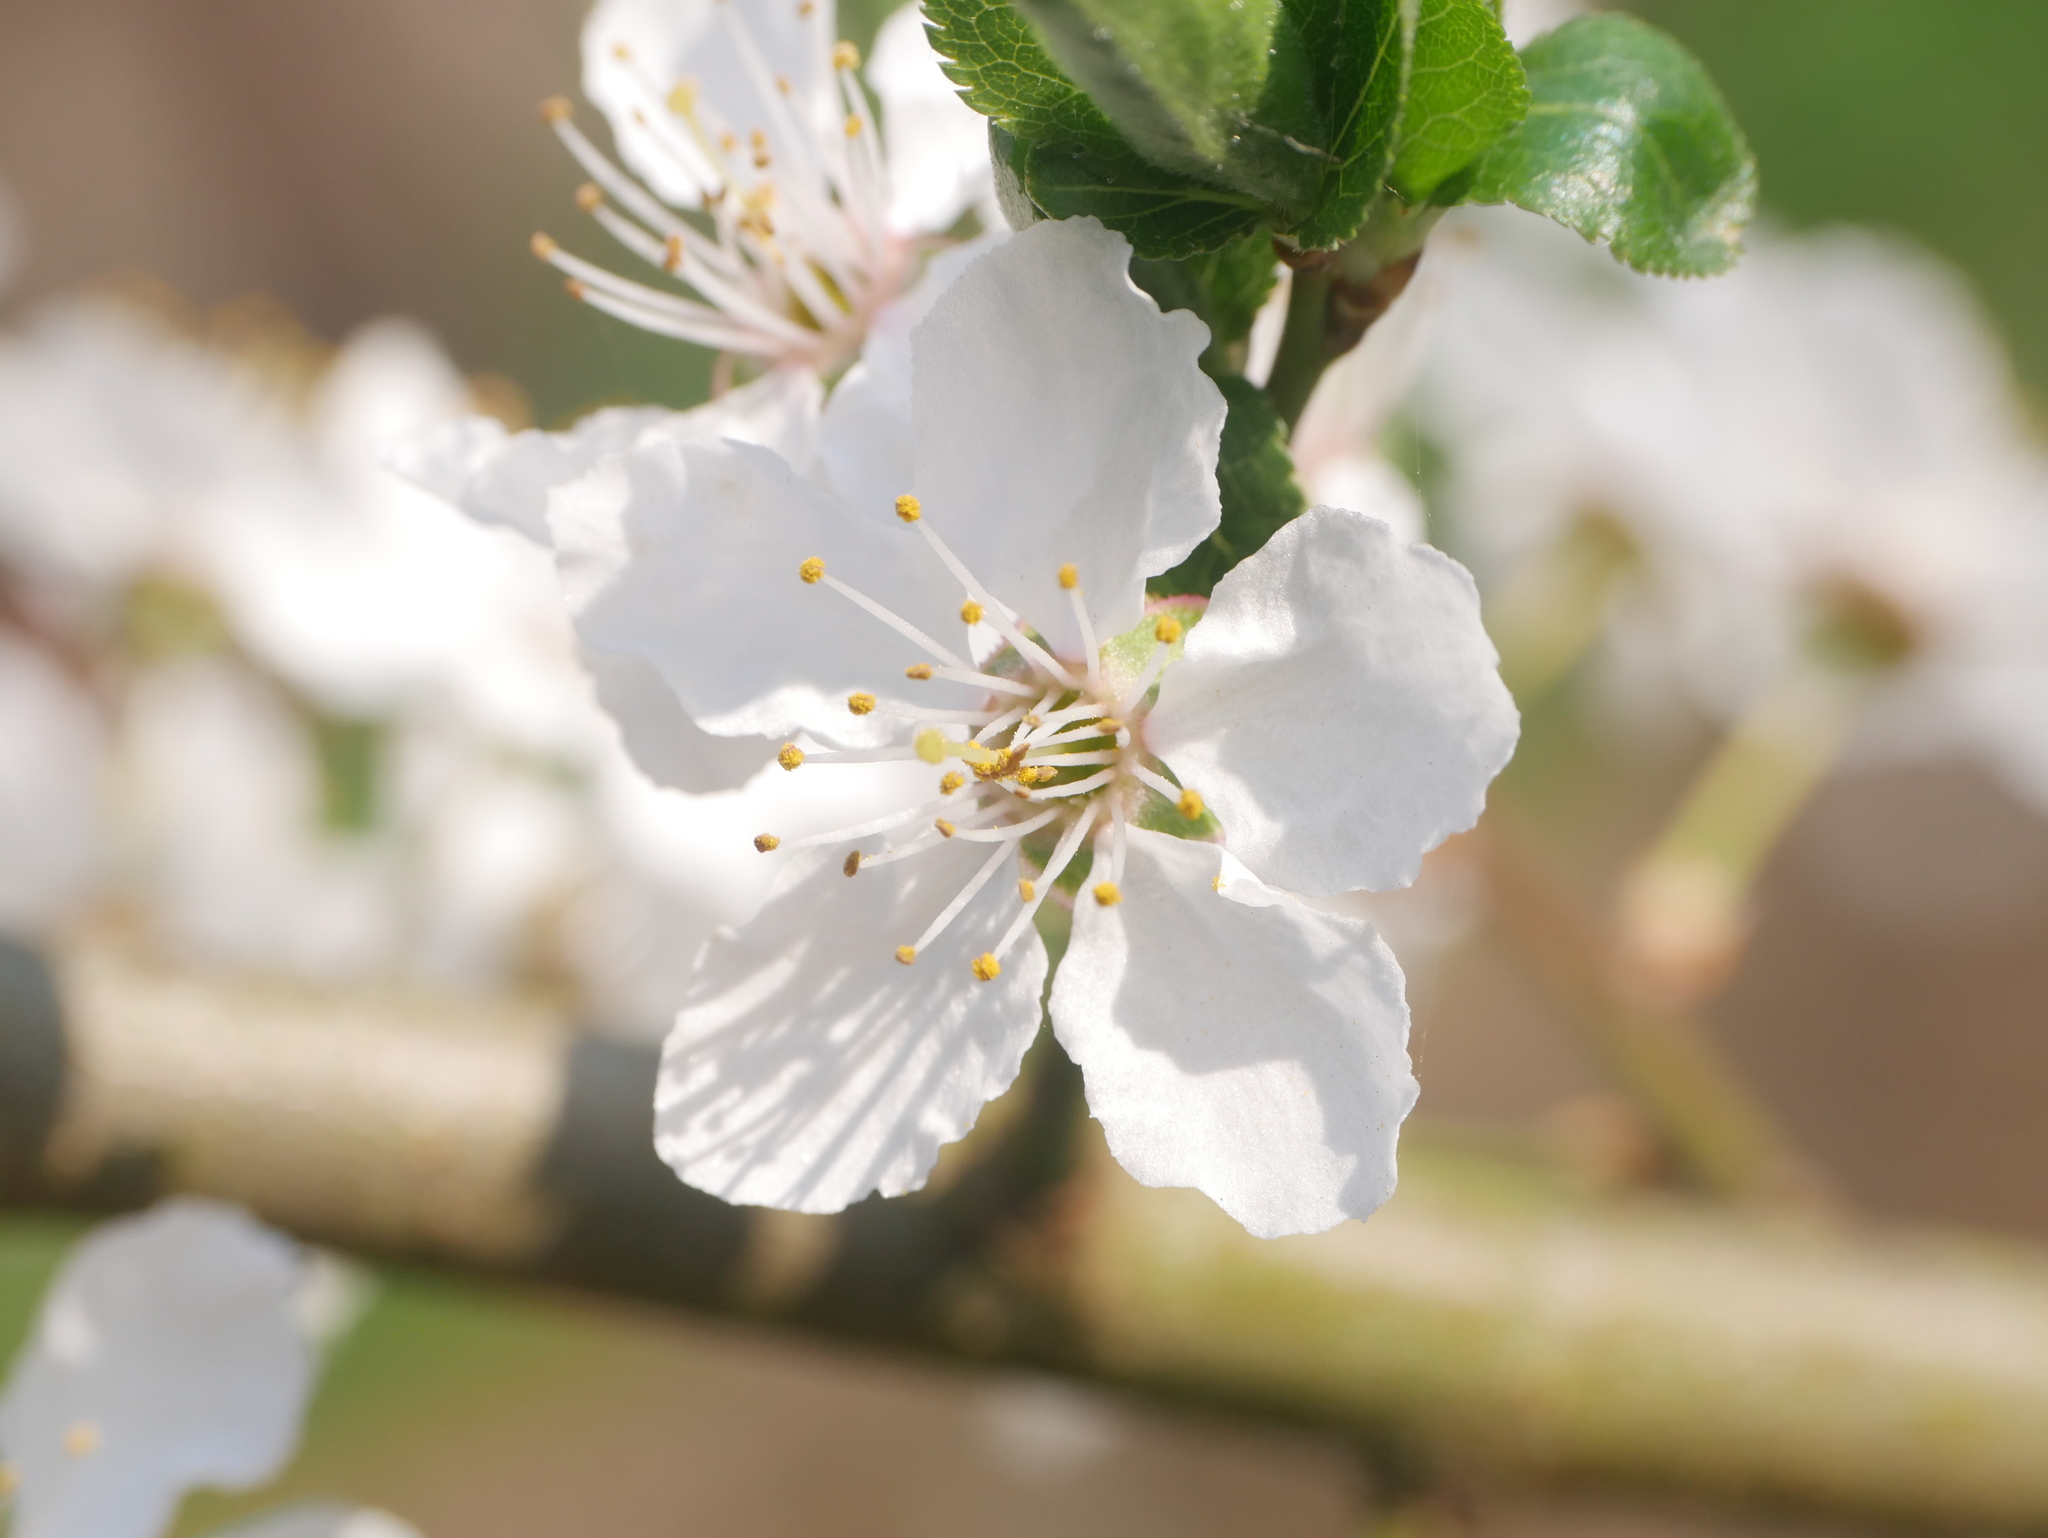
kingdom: Plantae
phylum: Tracheophyta
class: Magnoliopsida
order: Rosales
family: Rosaceae
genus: Prunus
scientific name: Prunus cerasifera
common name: Cherry plum
